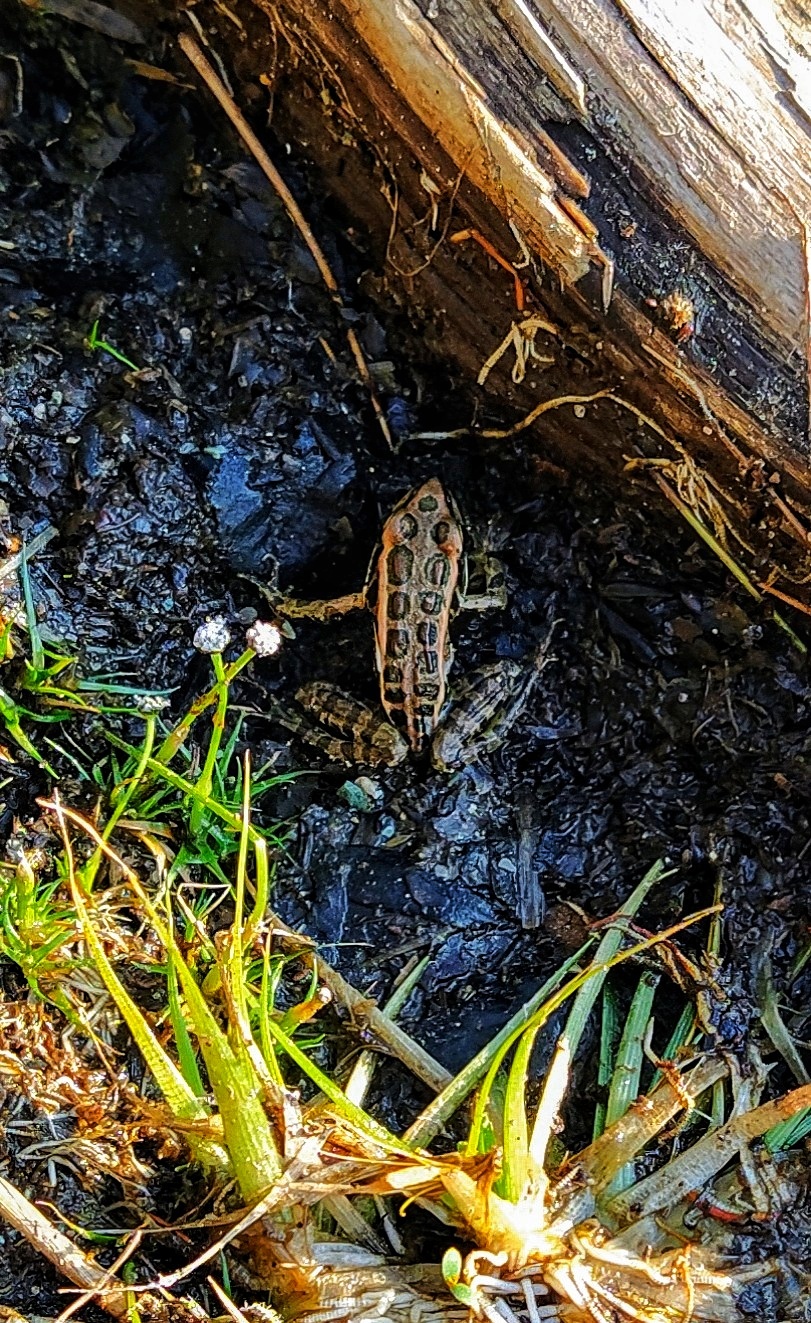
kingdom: Animalia
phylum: Chordata
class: Amphibia
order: Anura
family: Ranidae
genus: Lithobates
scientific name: Lithobates palustris
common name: Pickerel frog
